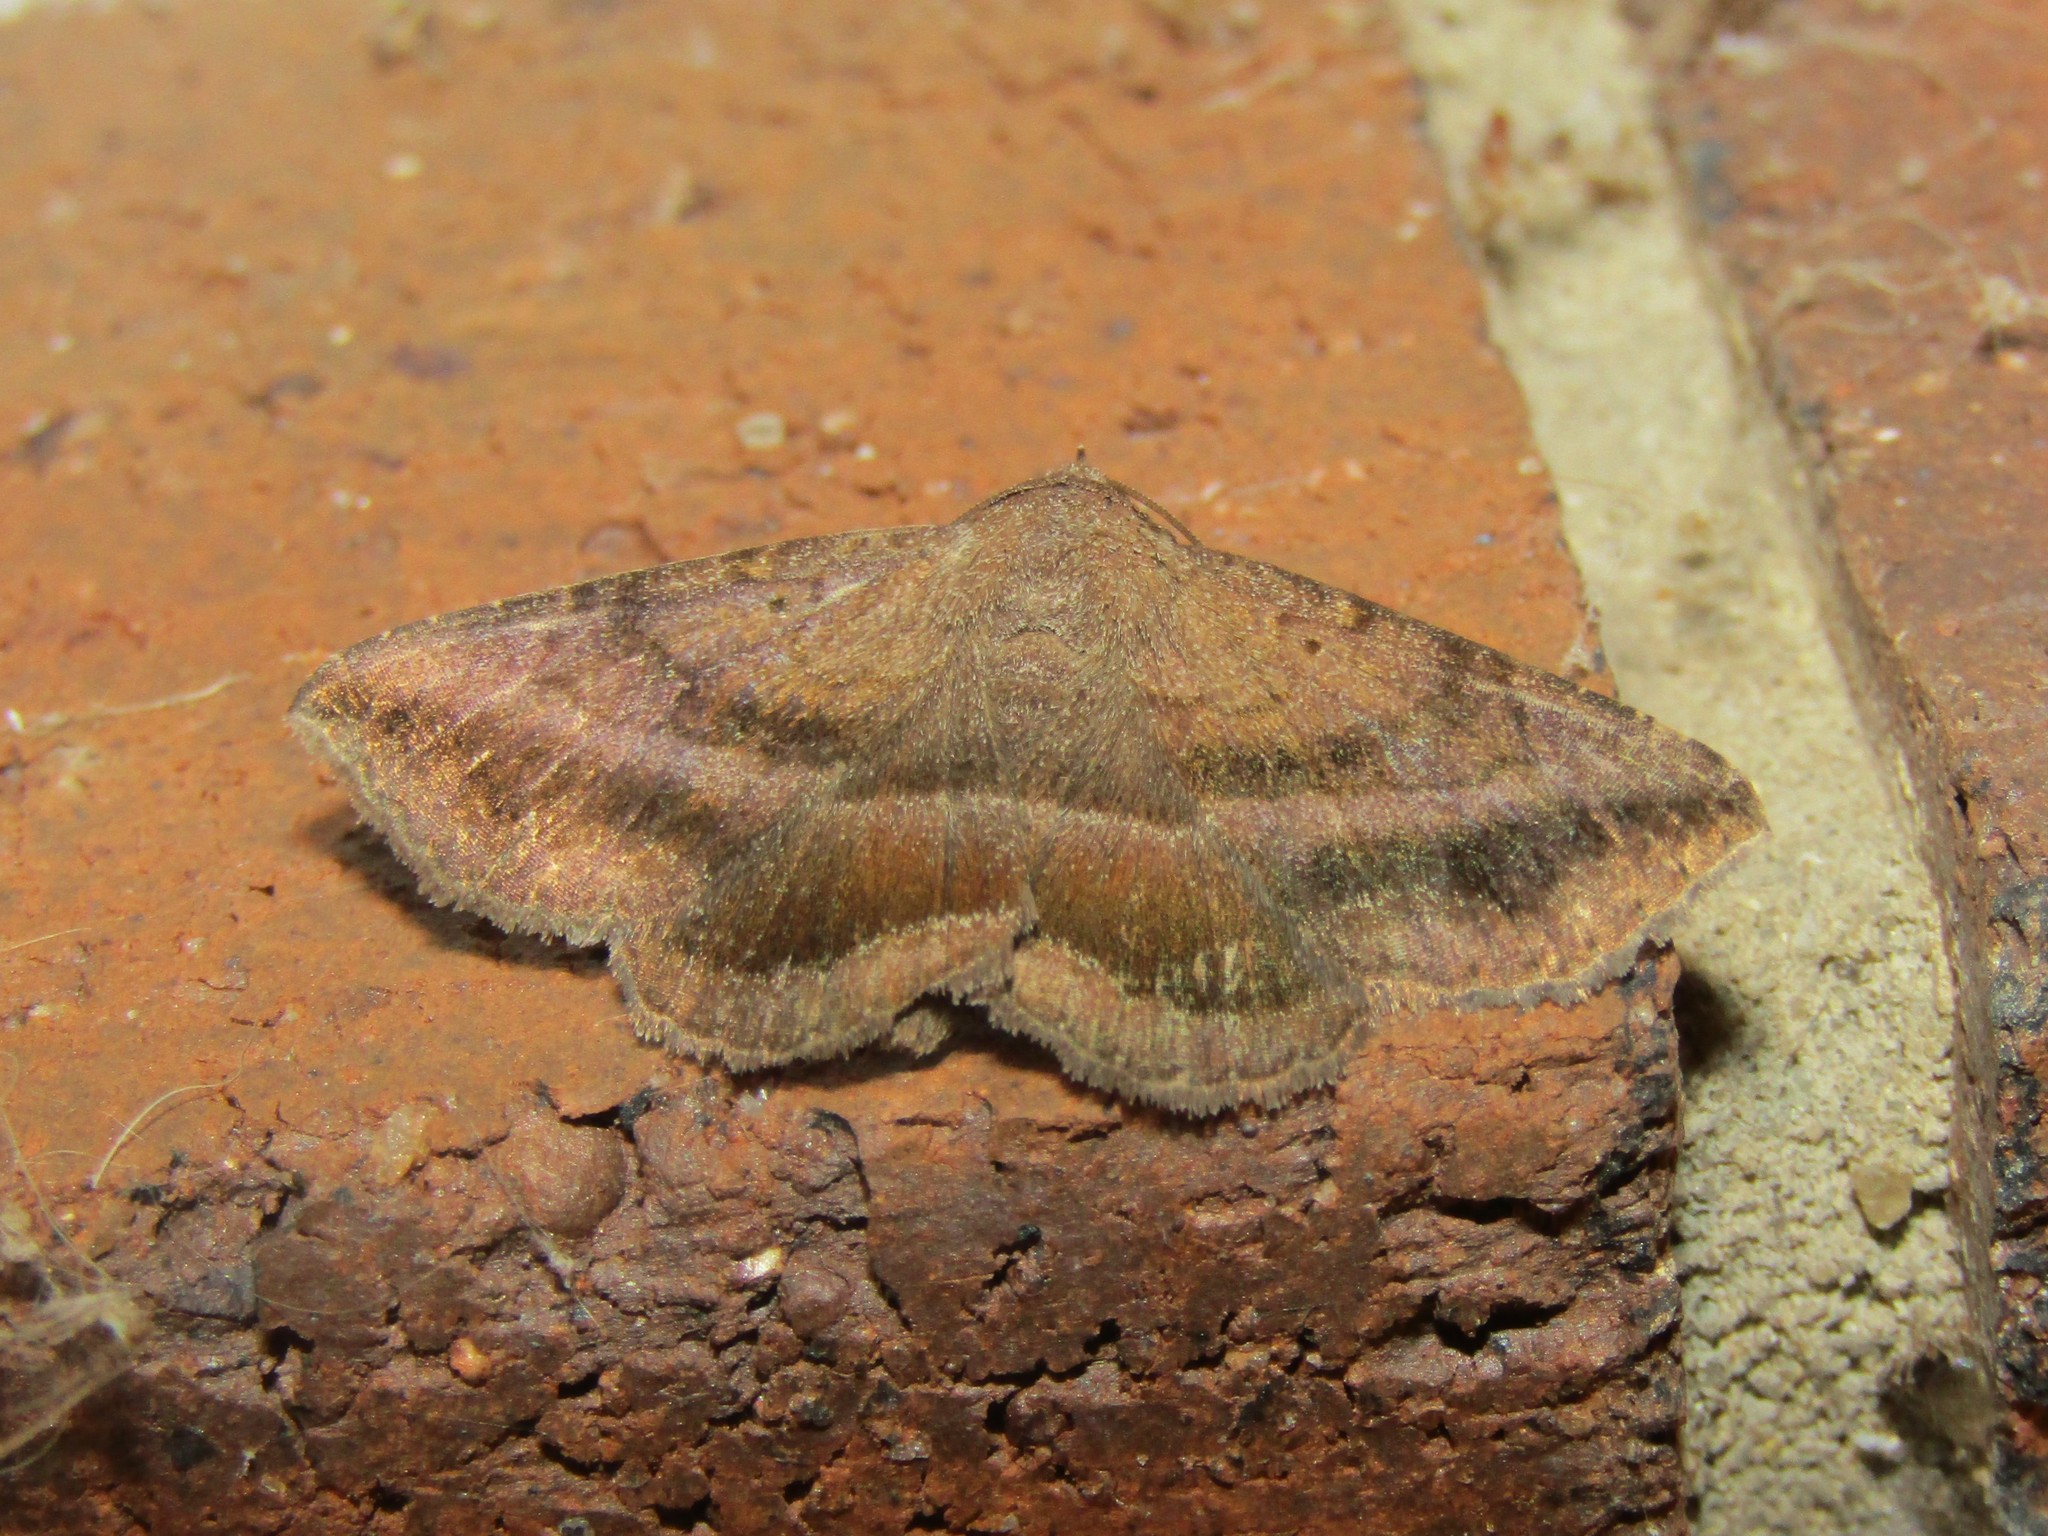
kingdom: Animalia
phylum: Arthropoda
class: Insecta
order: Lepidoptera
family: Erebidae
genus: Lesmone
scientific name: Lesmone detrahens
